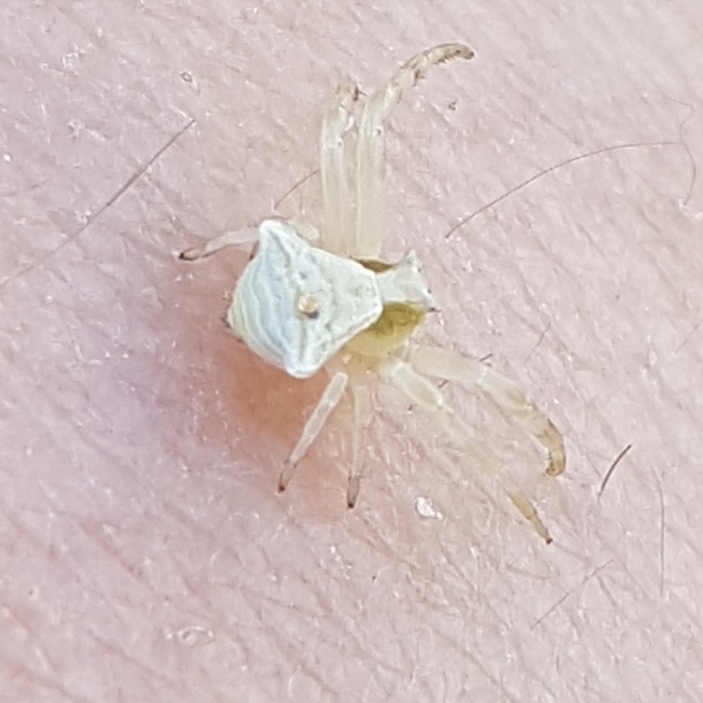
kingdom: Animalia
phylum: Arthropoda
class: Arachnida
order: Araneae
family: Thomisidae
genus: Thomisus
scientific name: Thomisus onustus
